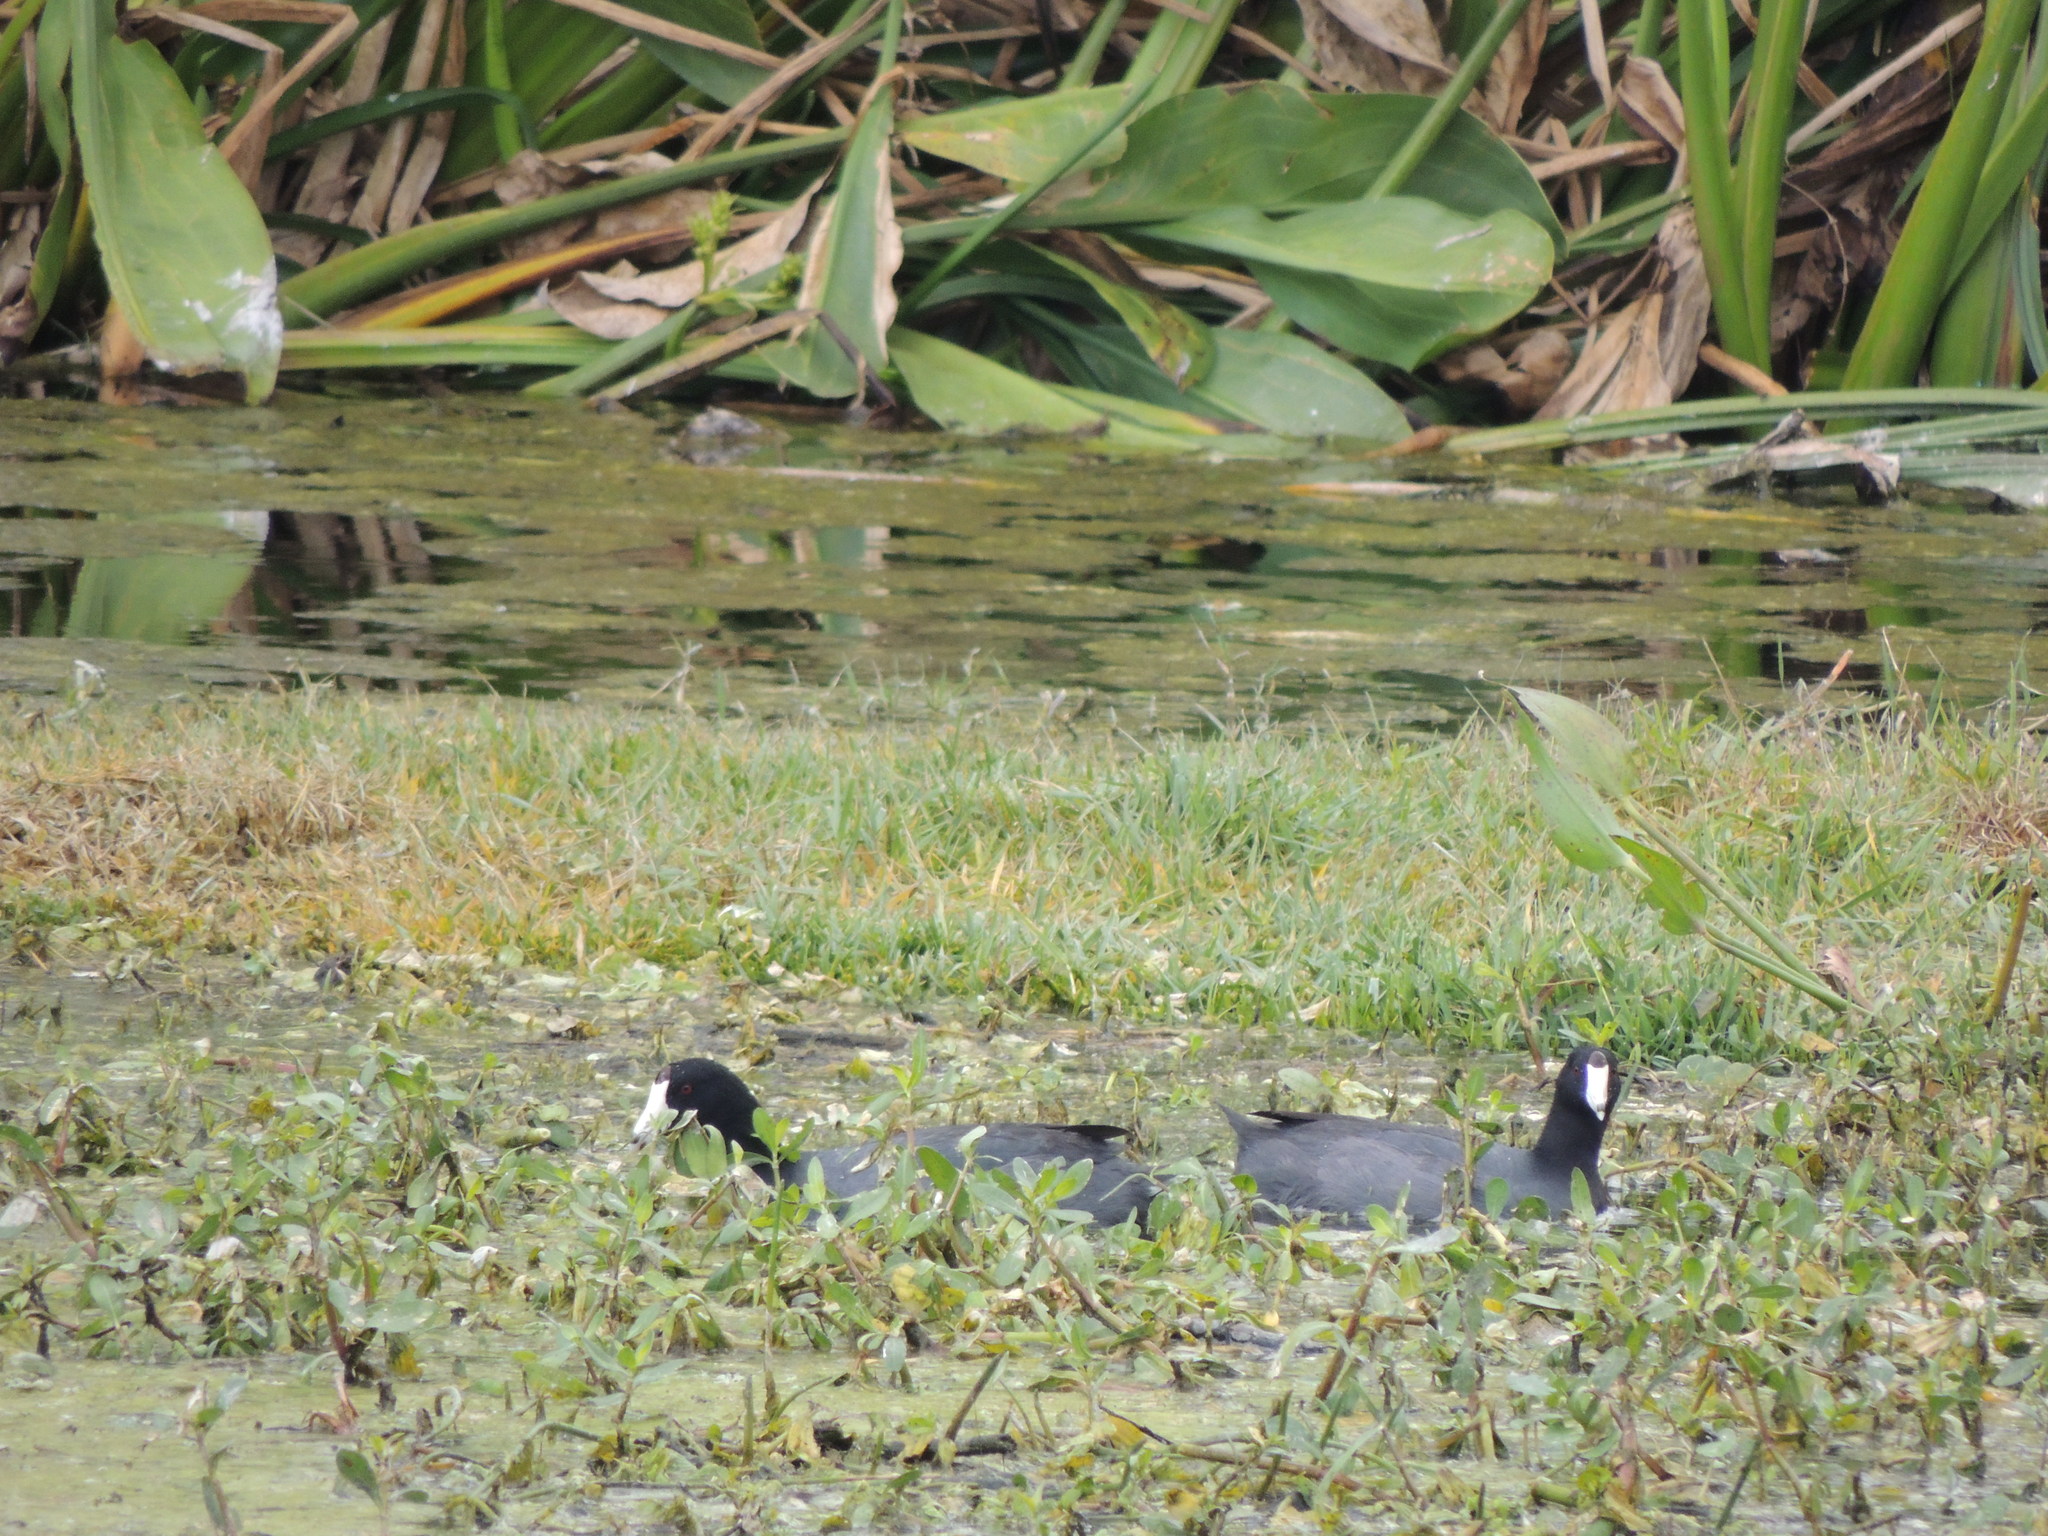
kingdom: Animalia
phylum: Chordata
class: Aves
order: Gruiformes
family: Rallidae
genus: Fulica
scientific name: Fulica americana
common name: American coot
